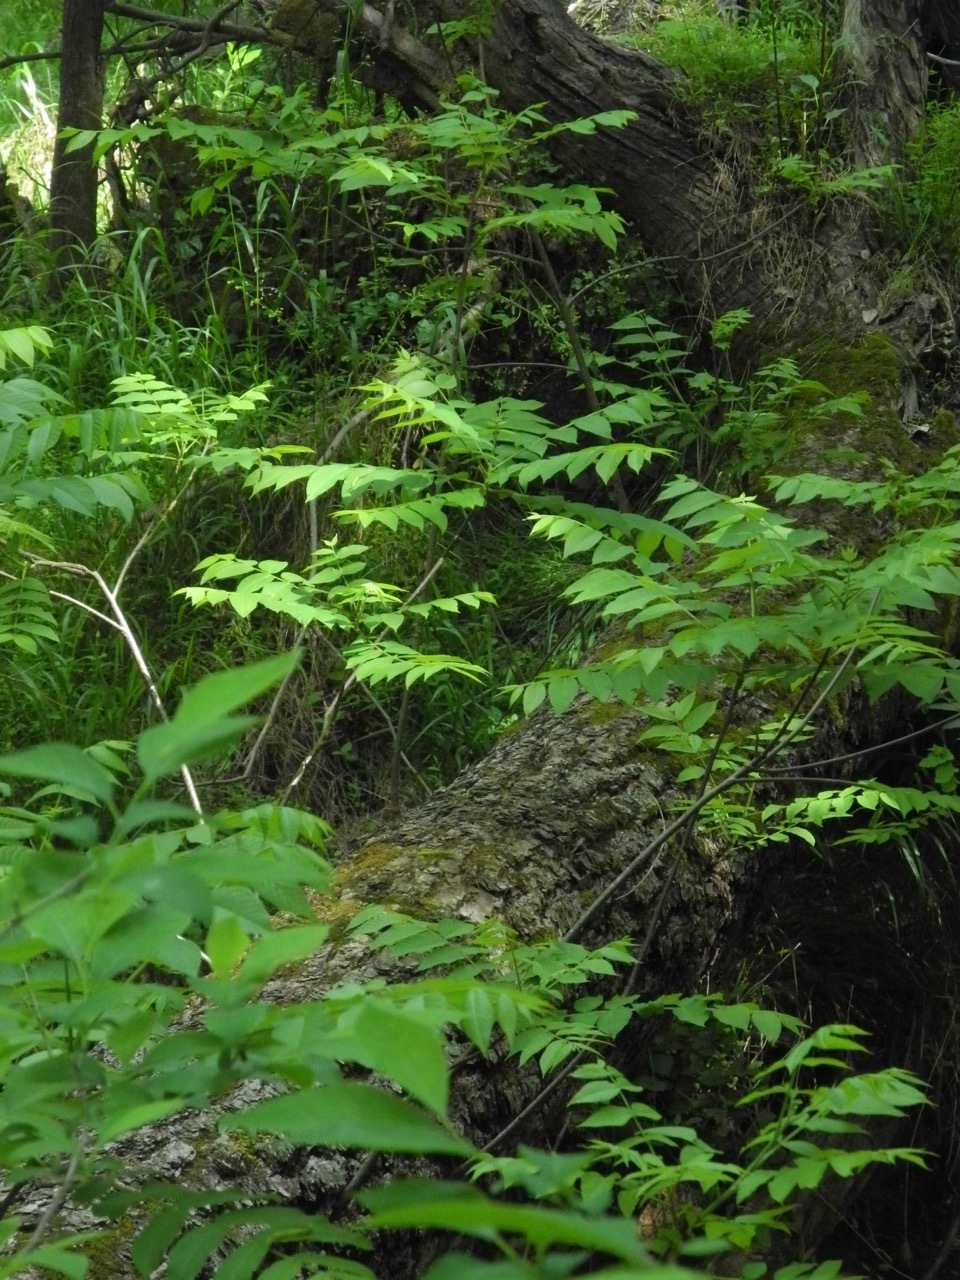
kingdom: Plantae
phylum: Tracheophyta
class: Magnoliopsida
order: Fagales
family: Juglandaceae
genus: Juglans
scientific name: Juglans nigra
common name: Black walnut
